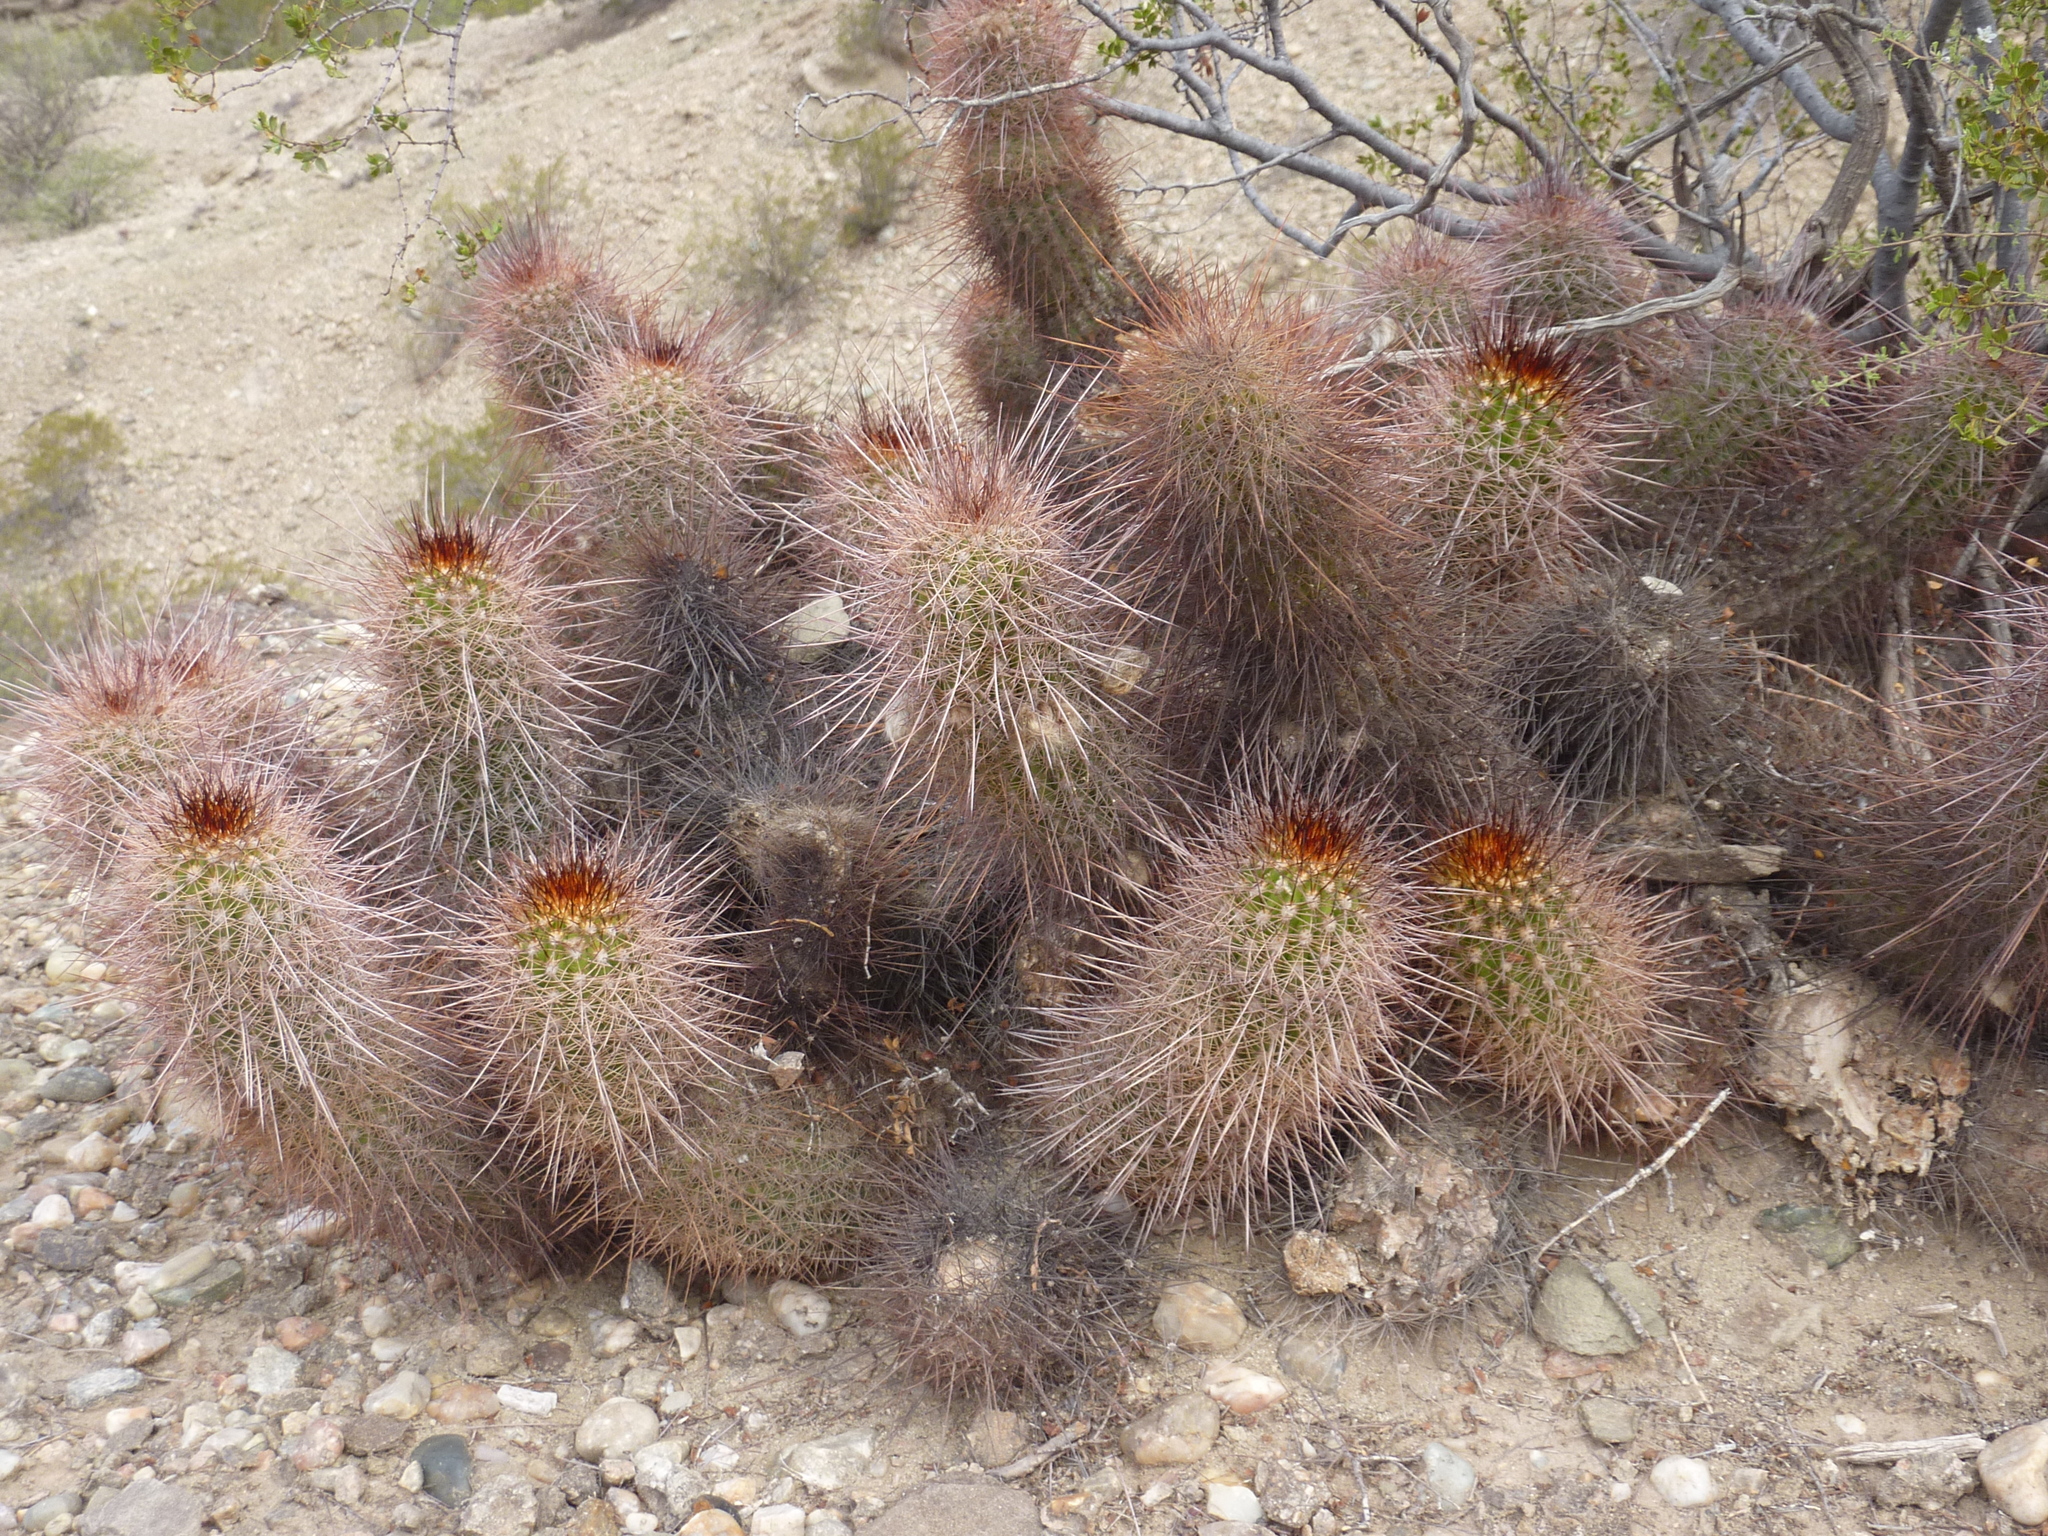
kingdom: Plantae
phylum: Tracheophyta
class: Magnoliopsida
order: Caryophyllales
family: Cactaceae
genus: Soehrensia
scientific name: Soehrensia strigosa
